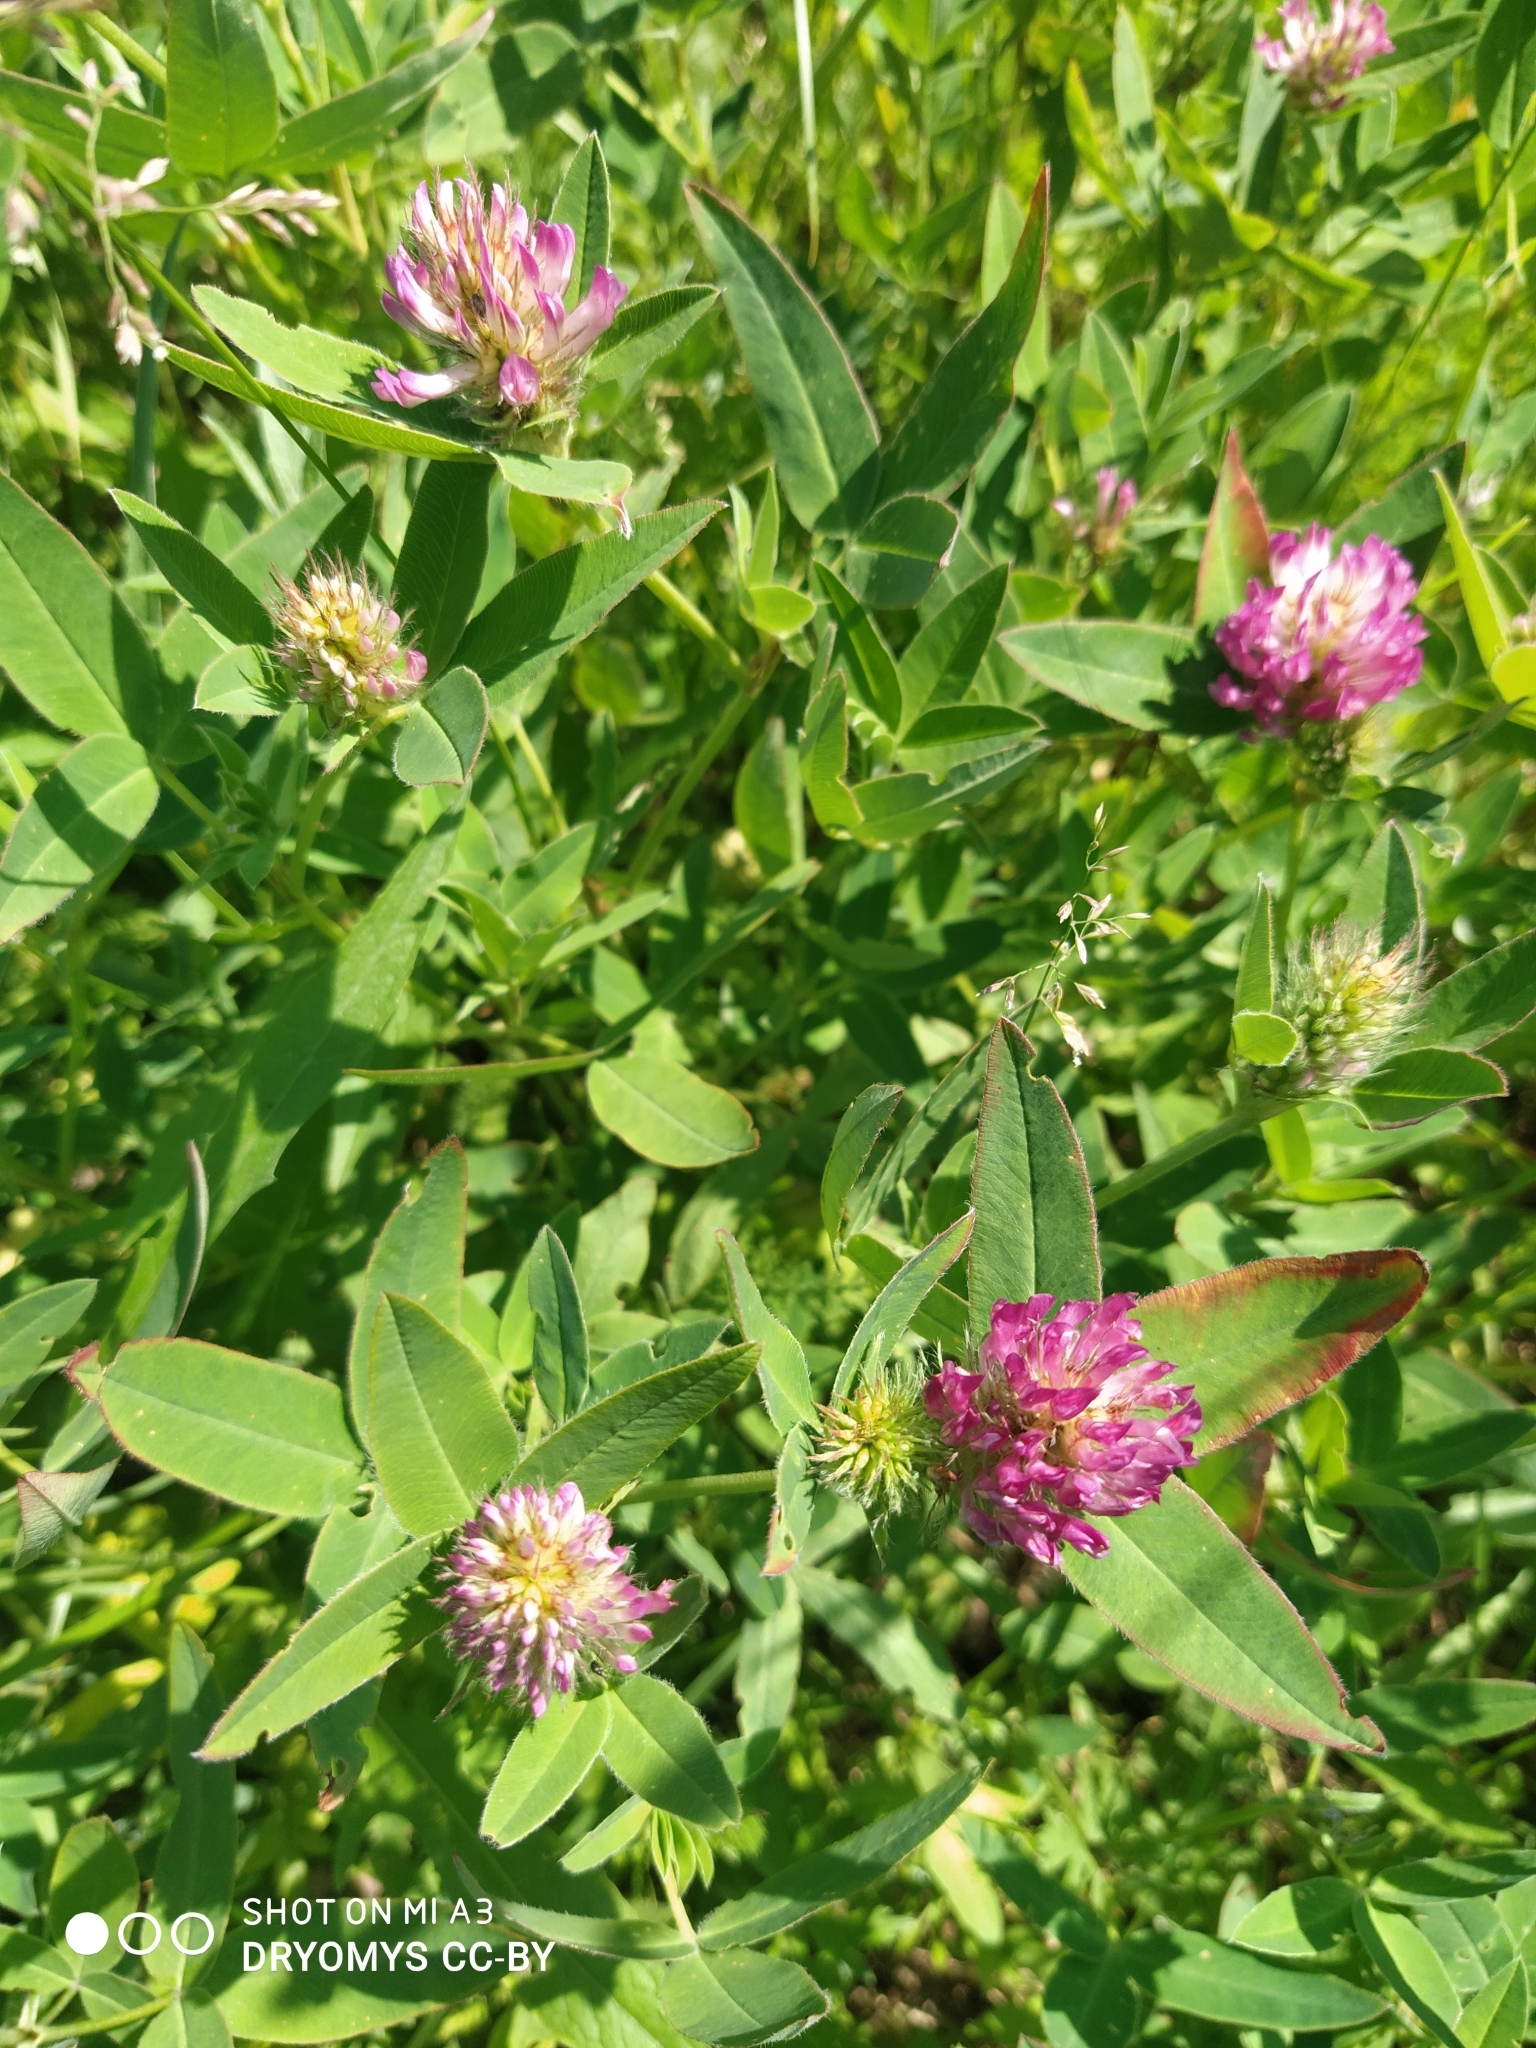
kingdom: Plantae
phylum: Tracheophyta
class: Magnoliopsida
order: Fabales
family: Fabaceae
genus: Trifolium
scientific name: Trifolium medium
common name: Zigzag clover
